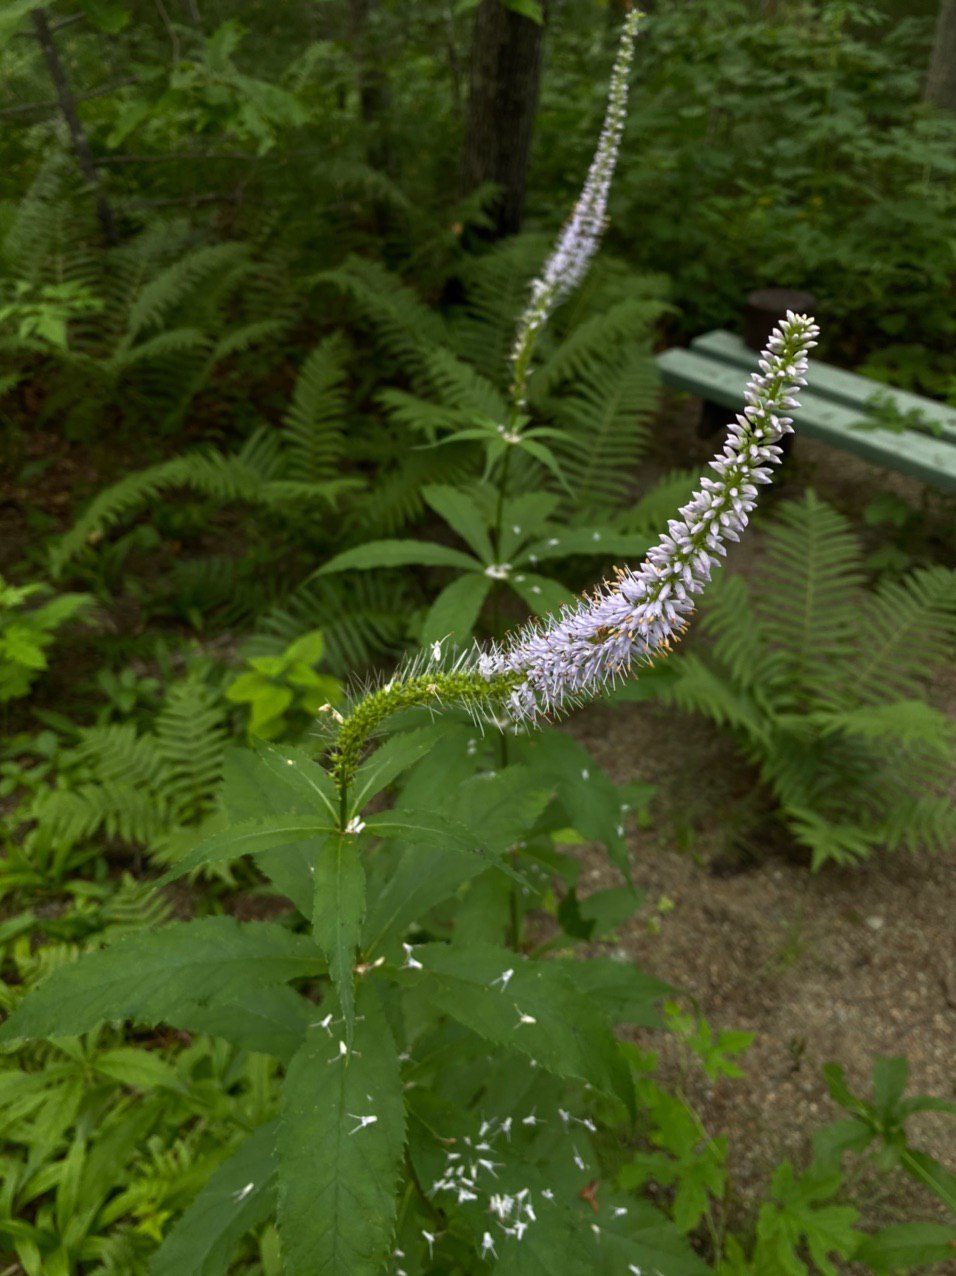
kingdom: Plantae
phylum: Tracheophyta
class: Magnoliopsida
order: Lamiales
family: Plantaginaceae
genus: Veronicastrum
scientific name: Veronicastrum sibiricum
